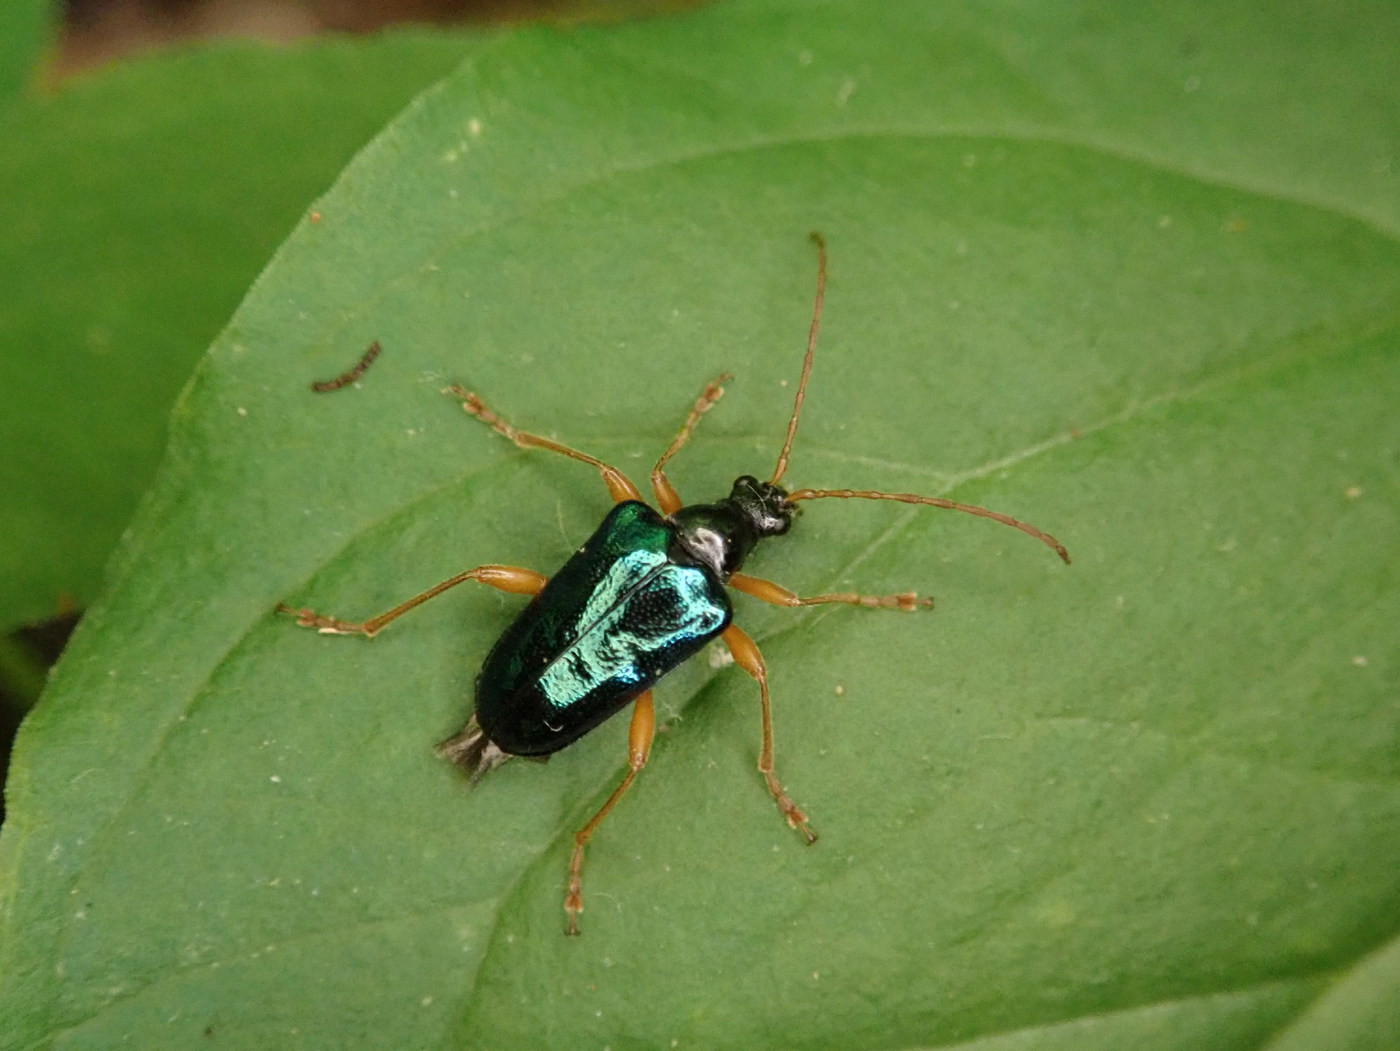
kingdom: Animalia
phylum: Arthropoda
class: Insecta
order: Coleoptera
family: Cerambycidae
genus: Gaurotes
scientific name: Gaurotes cyanipennis
